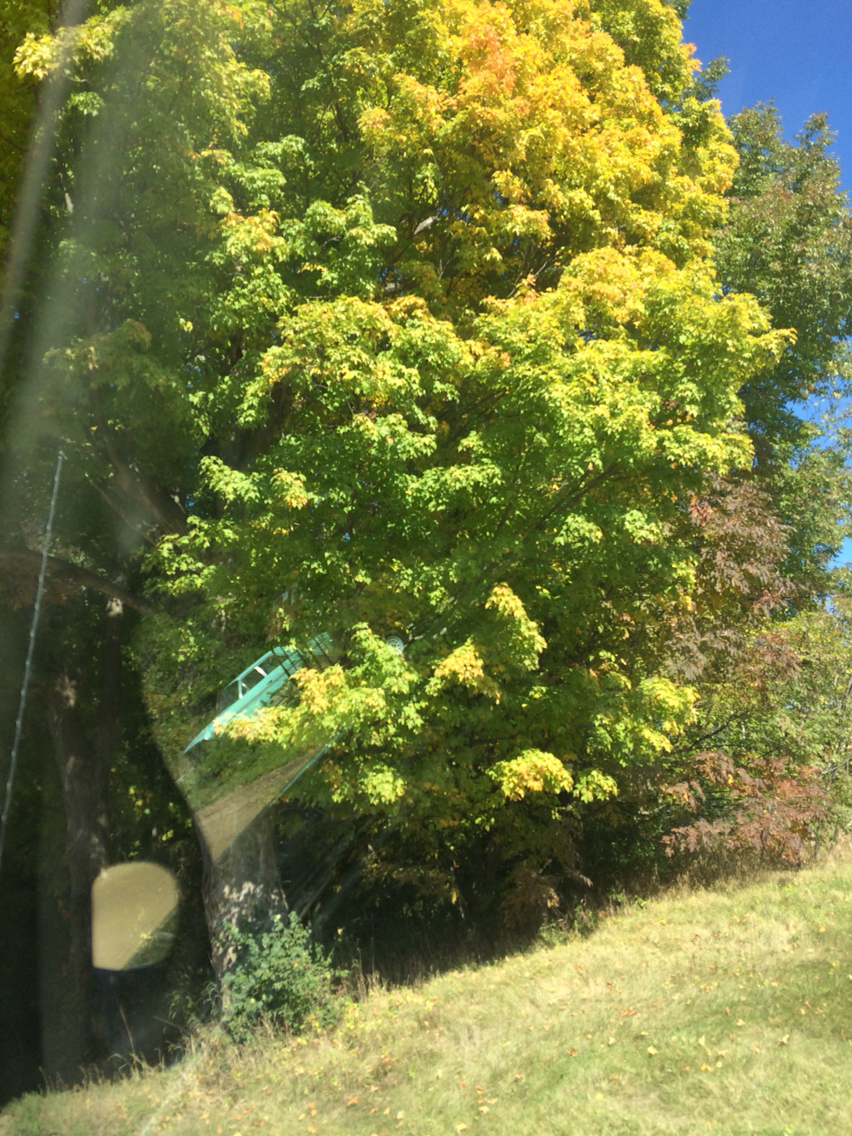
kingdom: Plantae
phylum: Tracheophyta
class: Magnoliopsida
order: Sapindales
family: Sapindaceae
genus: Acer
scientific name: Acer saccharum
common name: Sugar maple
